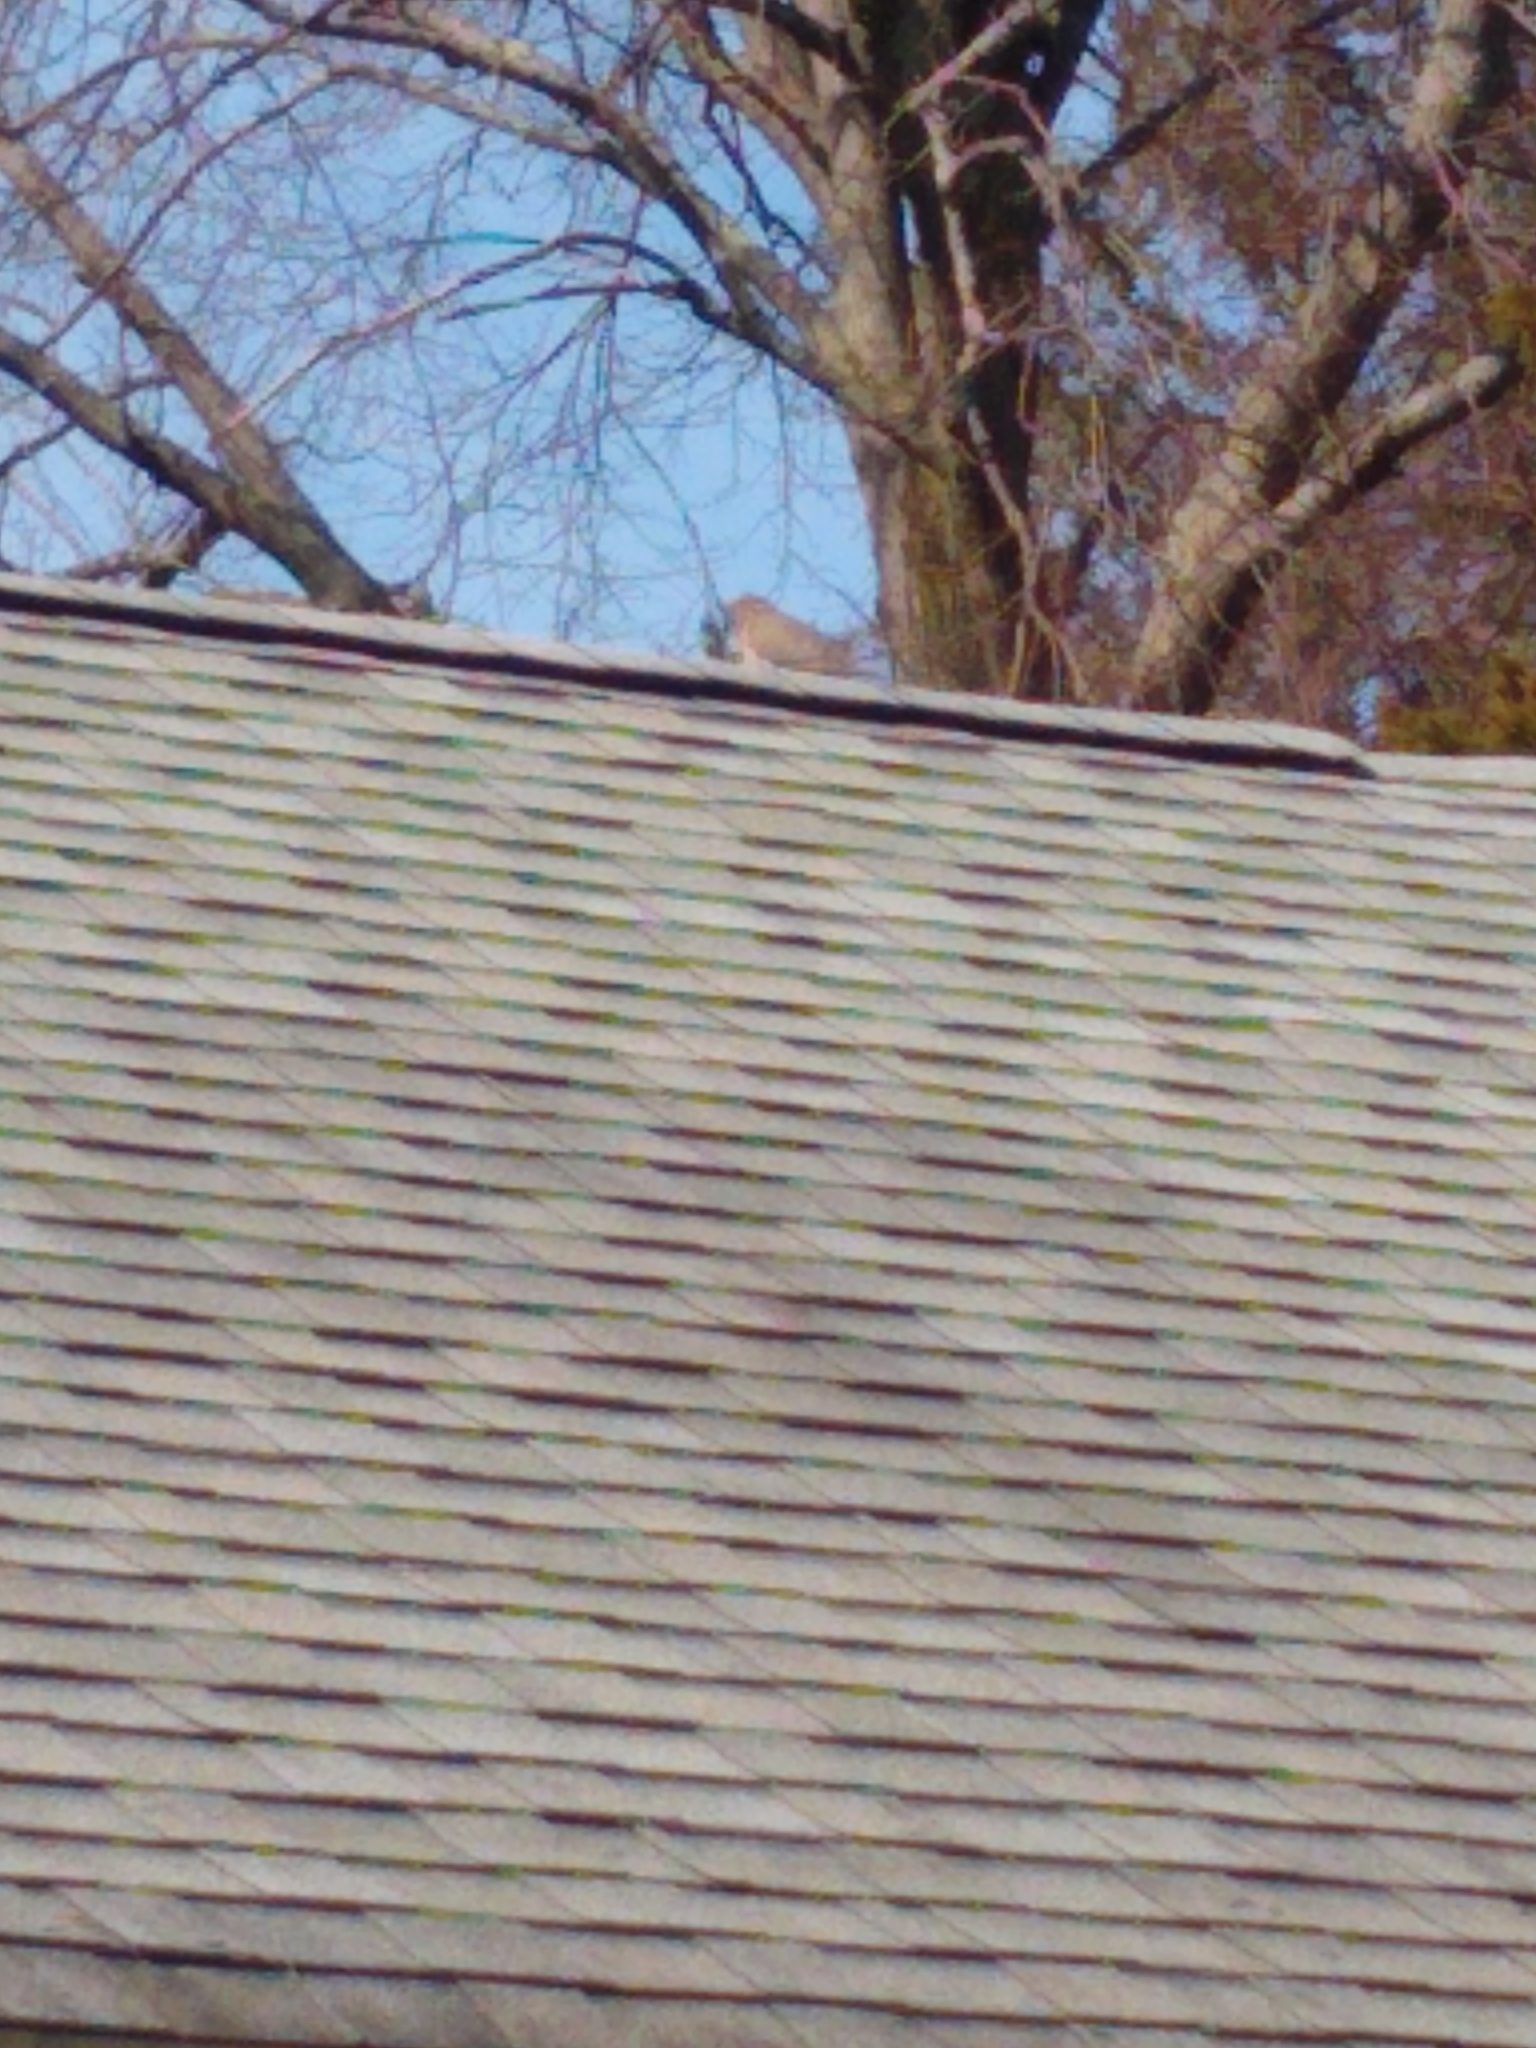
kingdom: Animalia
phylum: Chordata
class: Aves
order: Columbiformes
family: Columbidae
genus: Zenaida
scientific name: Zenaida macroura
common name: Mourning dove
